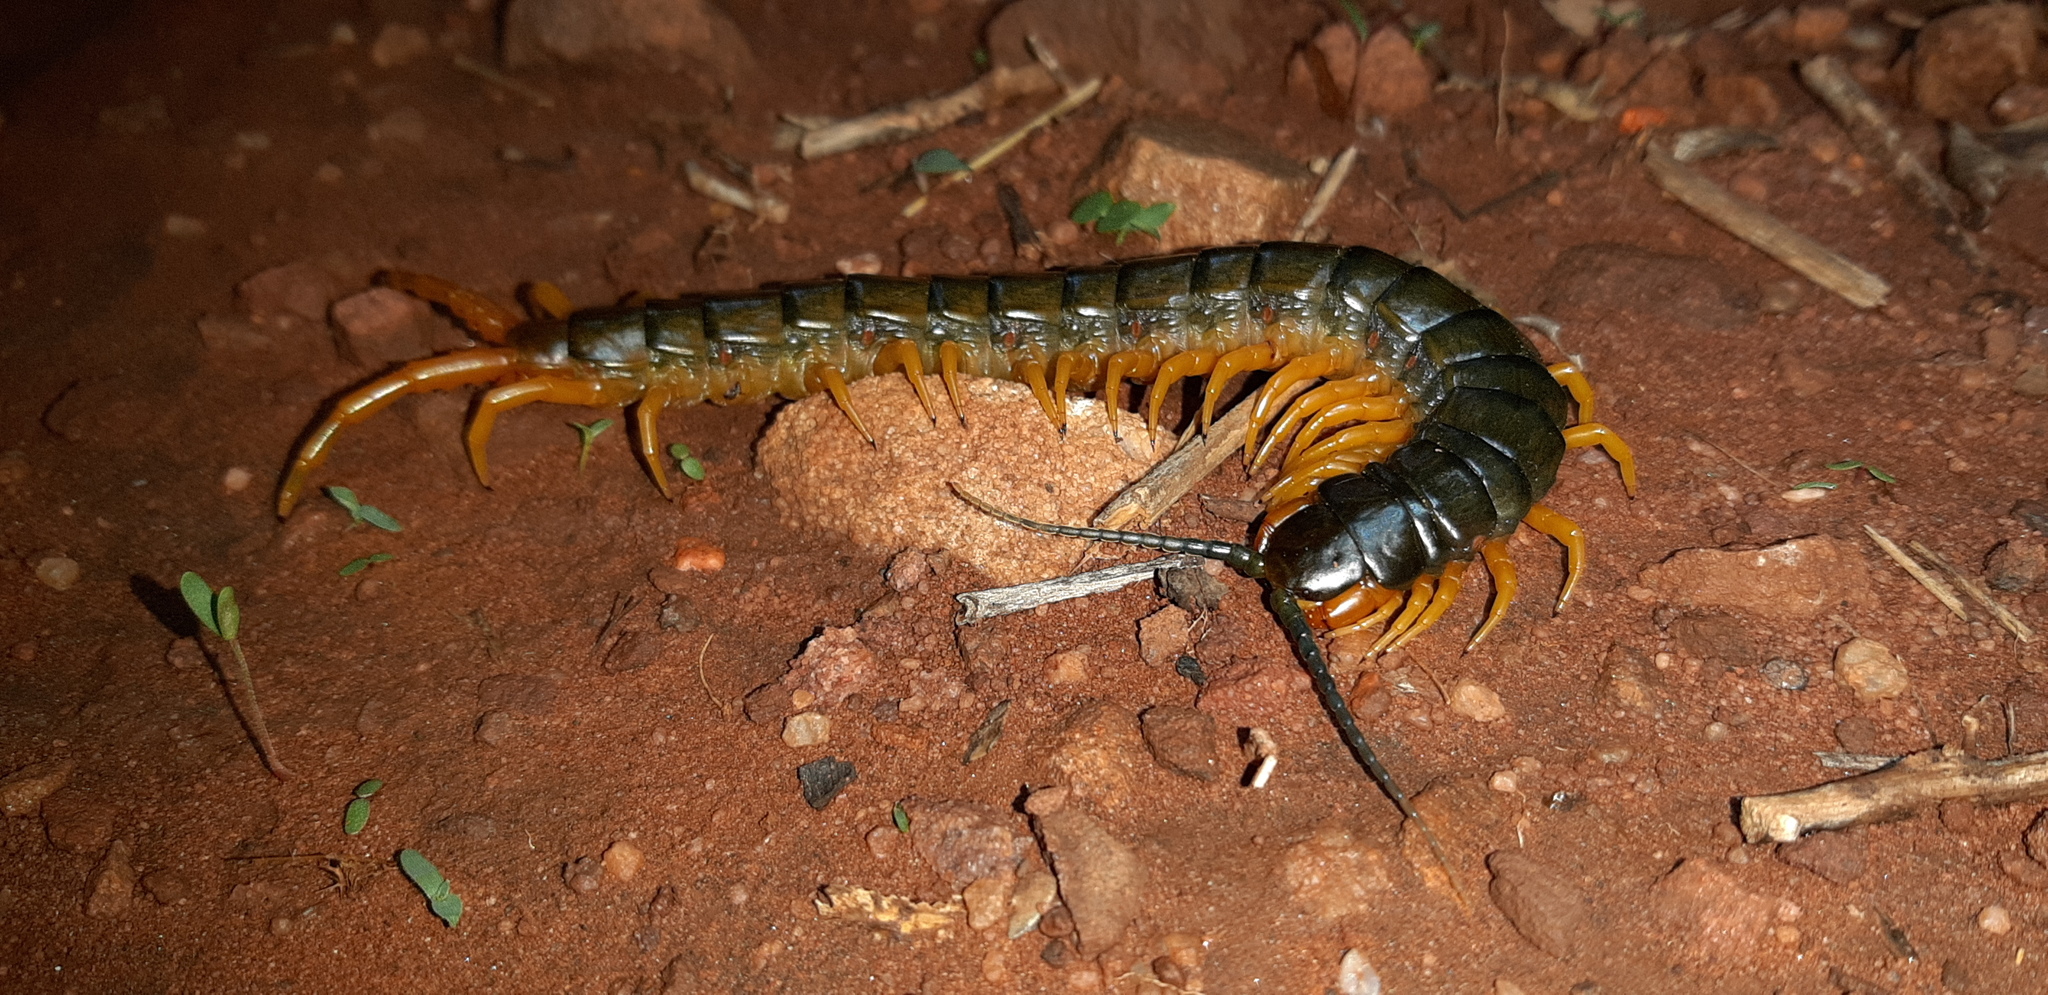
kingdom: Animalia
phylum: Arthropoda
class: Chilopoda
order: Scolopendromorpha
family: Scolopendridae
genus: Ethmostigmus
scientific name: Ethmostigmus trigonopodus
